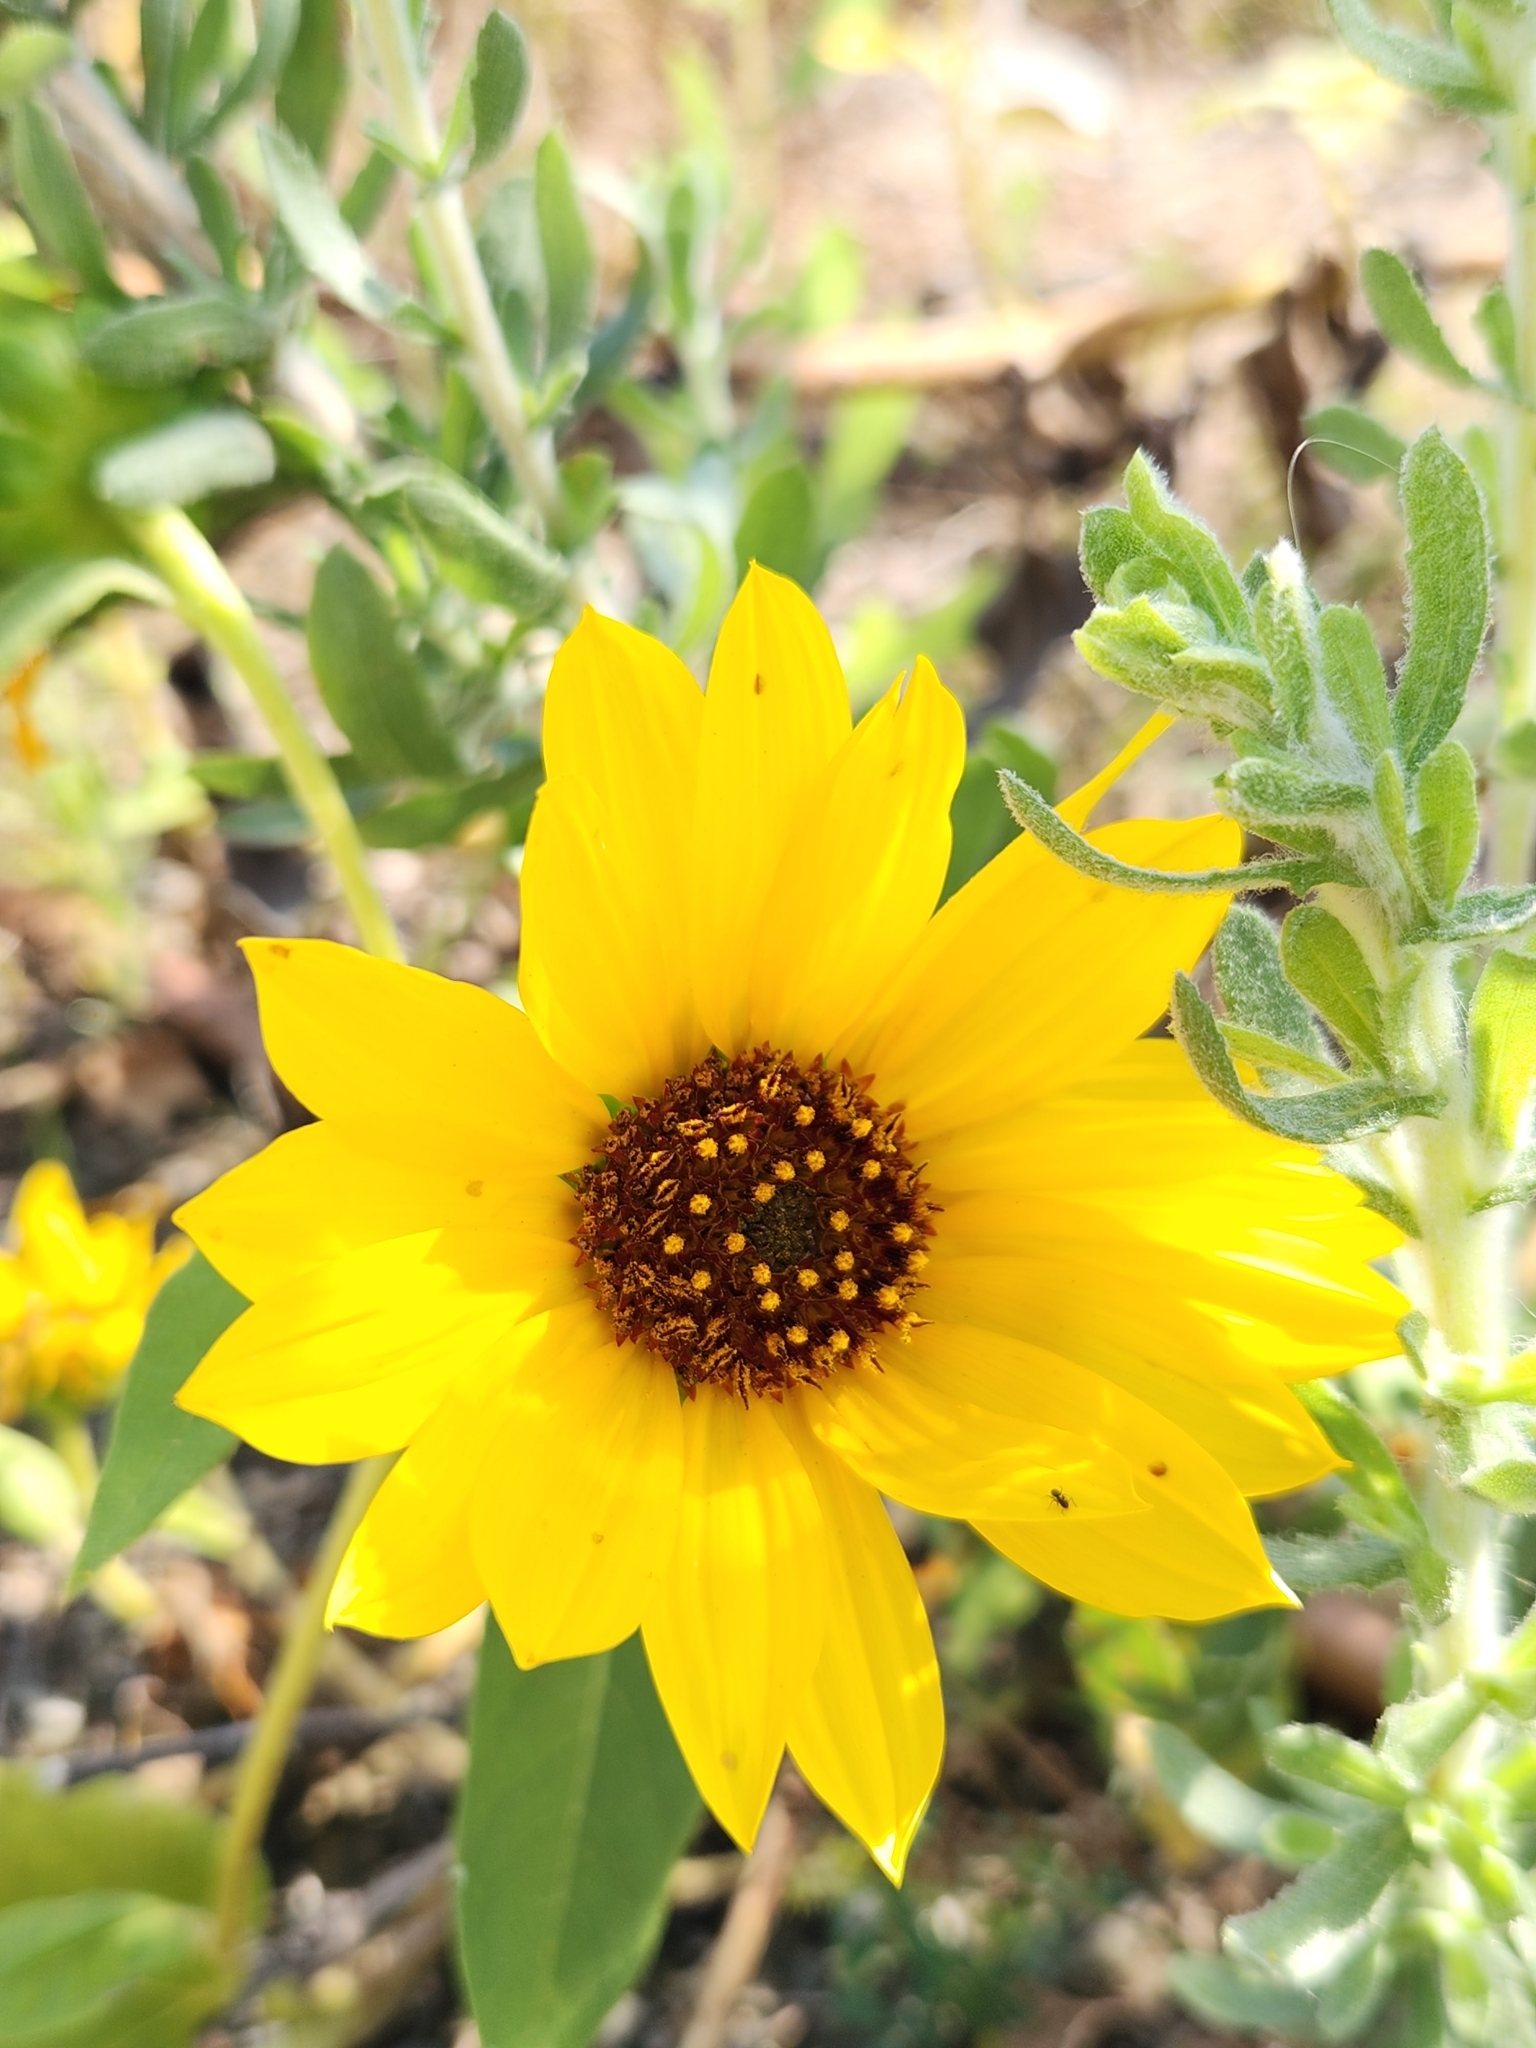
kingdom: Plantae
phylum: Tracheophyta
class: Magnoliopsida
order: Asterales
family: Asteraceae
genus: Helianthus
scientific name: Helianthus annuus
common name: Sunflower
